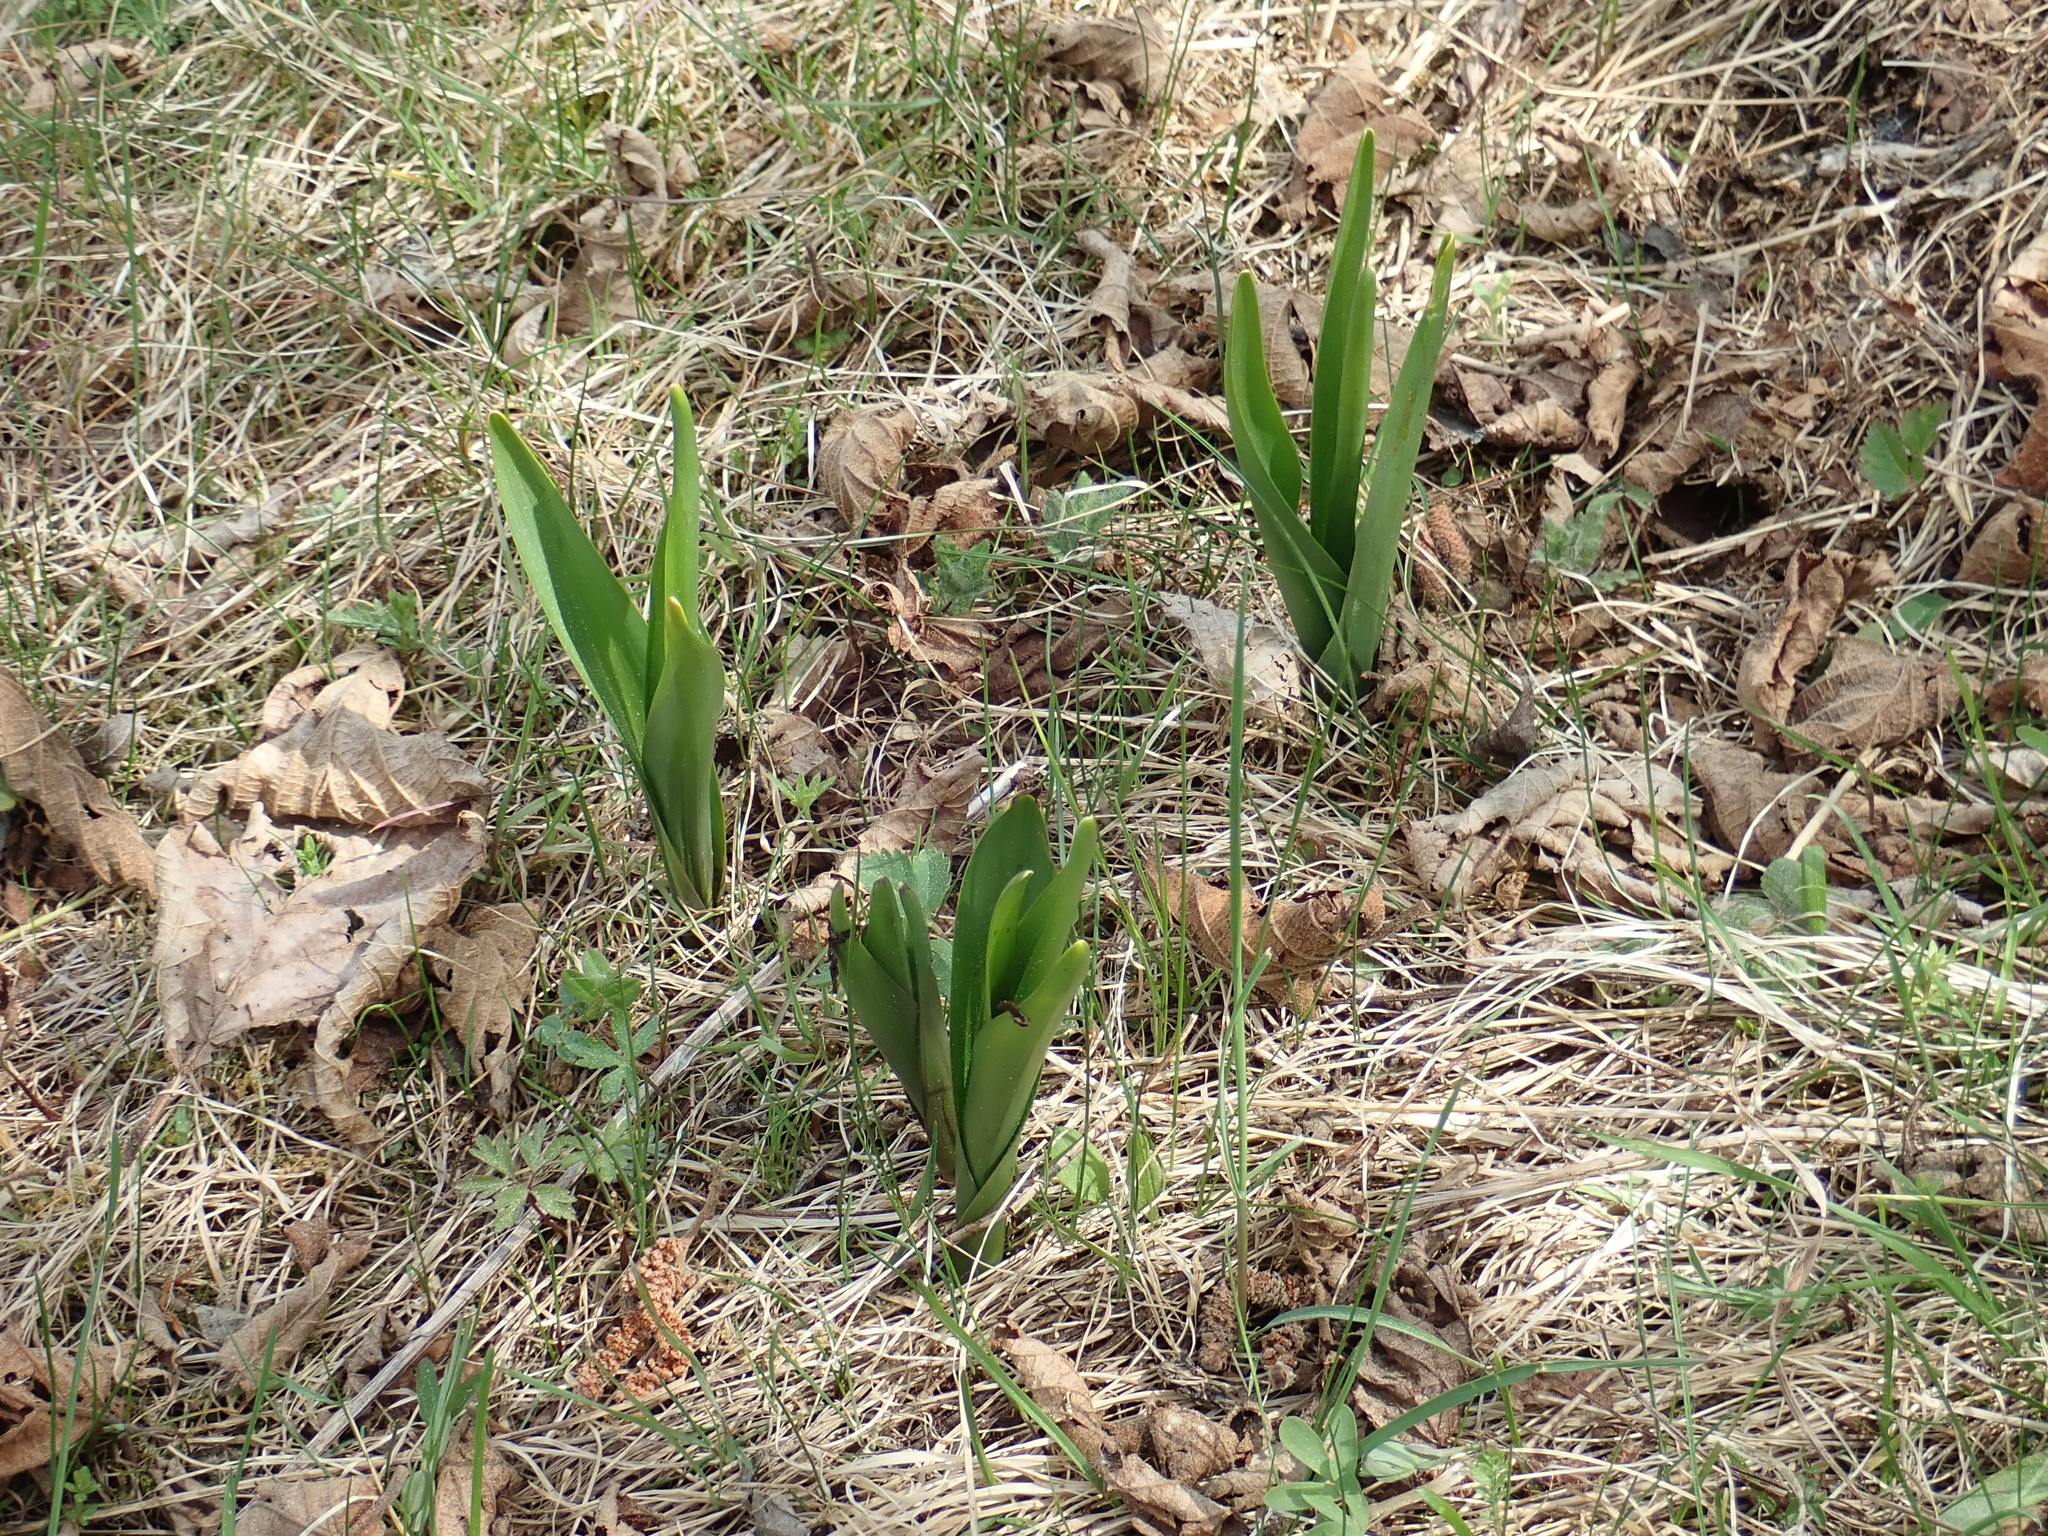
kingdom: Plantae
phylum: Tracheophyta
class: Liliopsida
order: Liliales
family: Colchicaceae
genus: Colchicum
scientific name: Colchicum autumnale
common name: Autumn crocus
